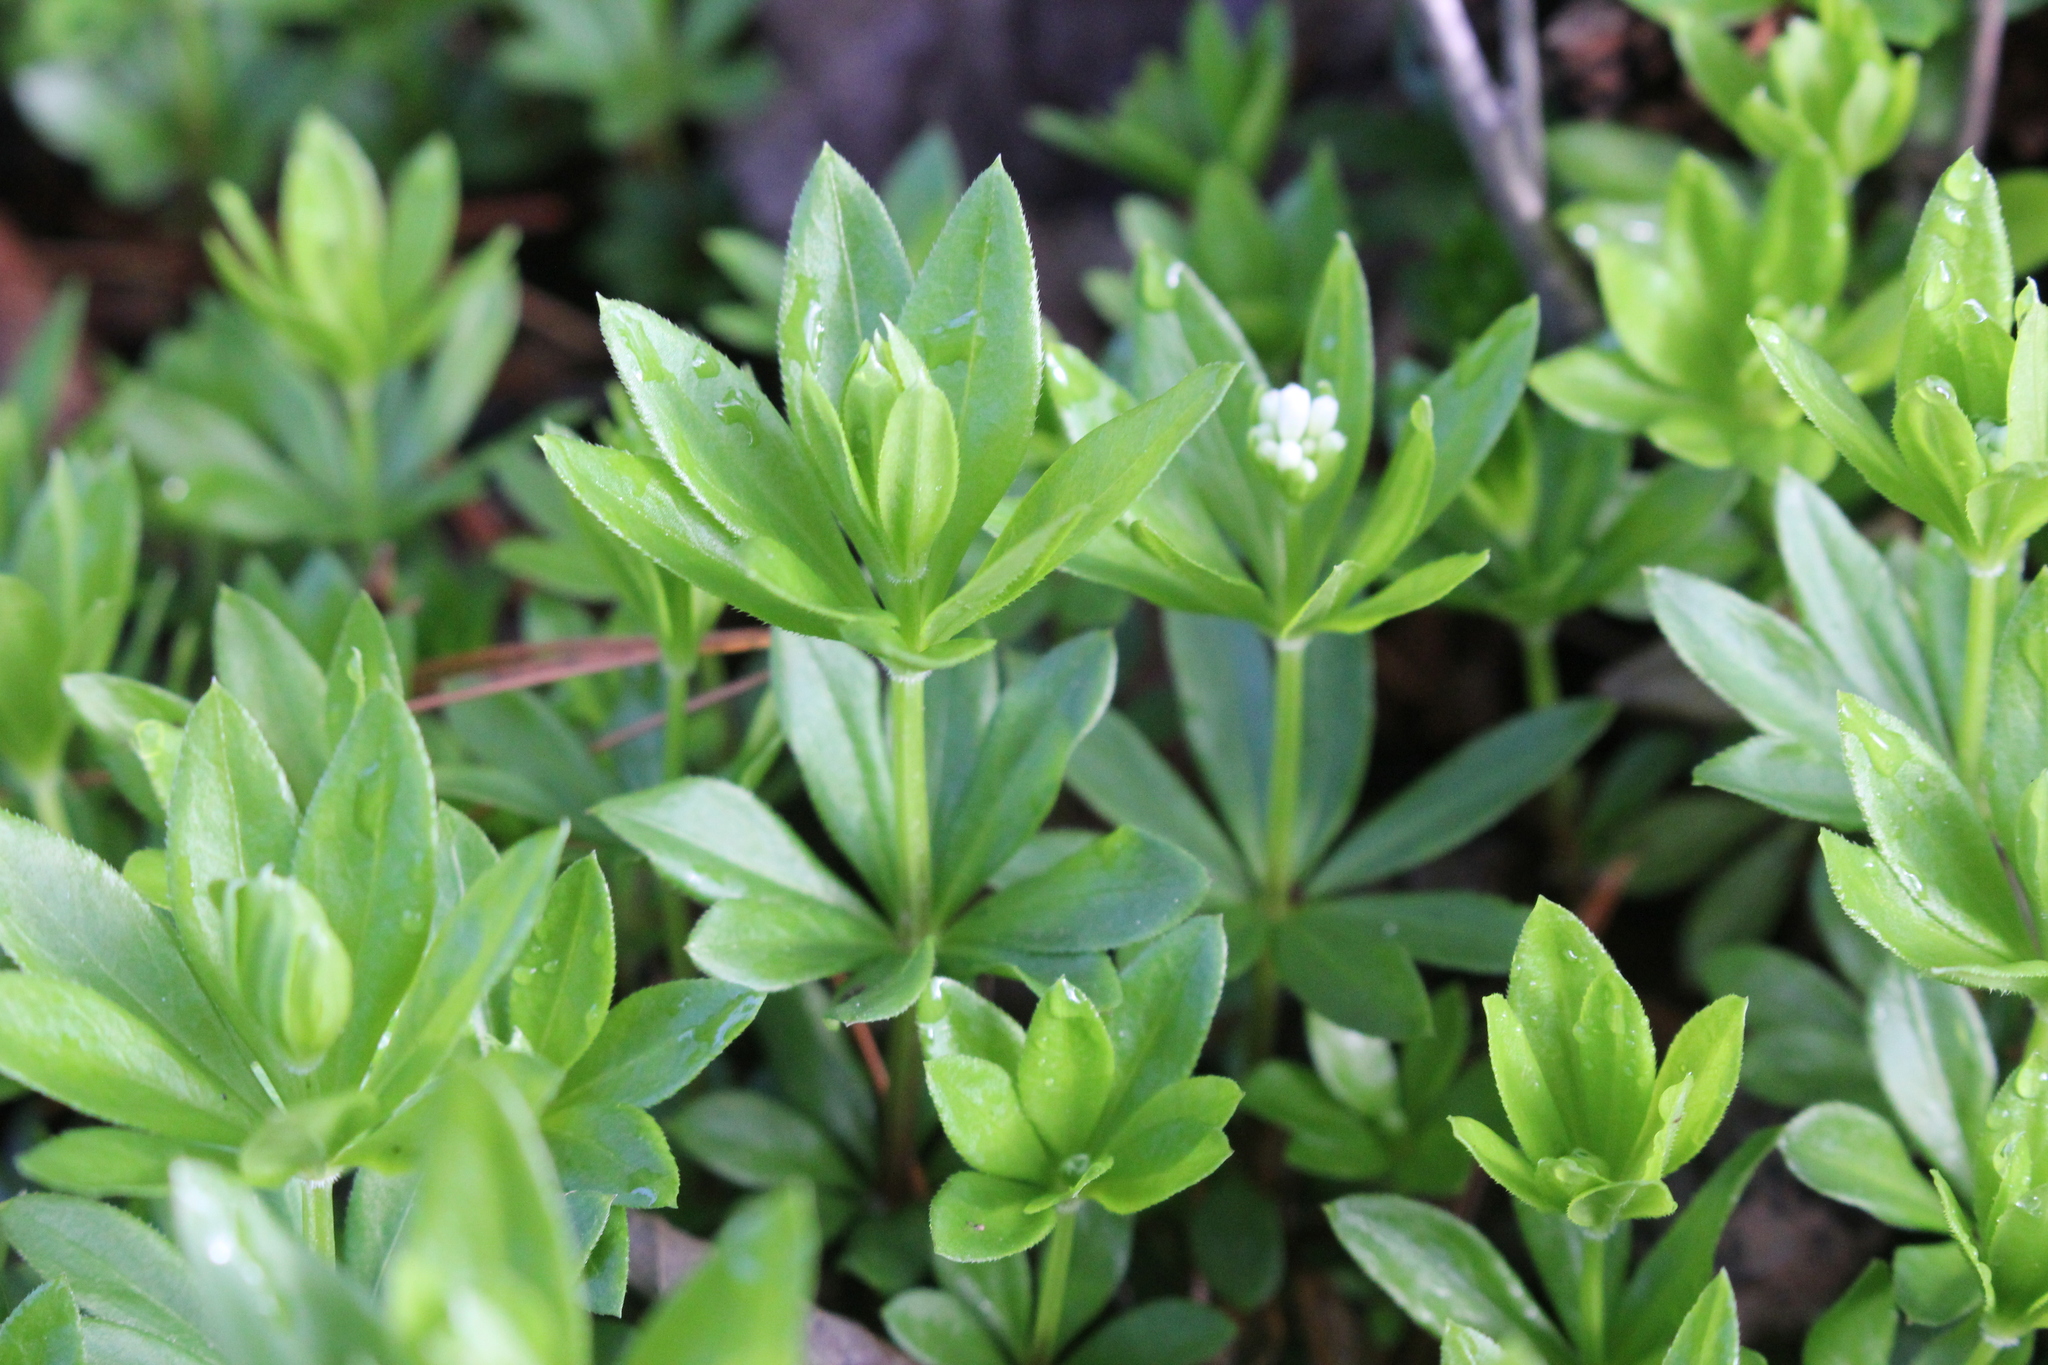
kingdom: Plantae
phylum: Tracheophyta
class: Magnoliopsida
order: Gentianales
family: Rubiaceae
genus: Galium
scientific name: Galium odoratum
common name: Sweet woodruff
